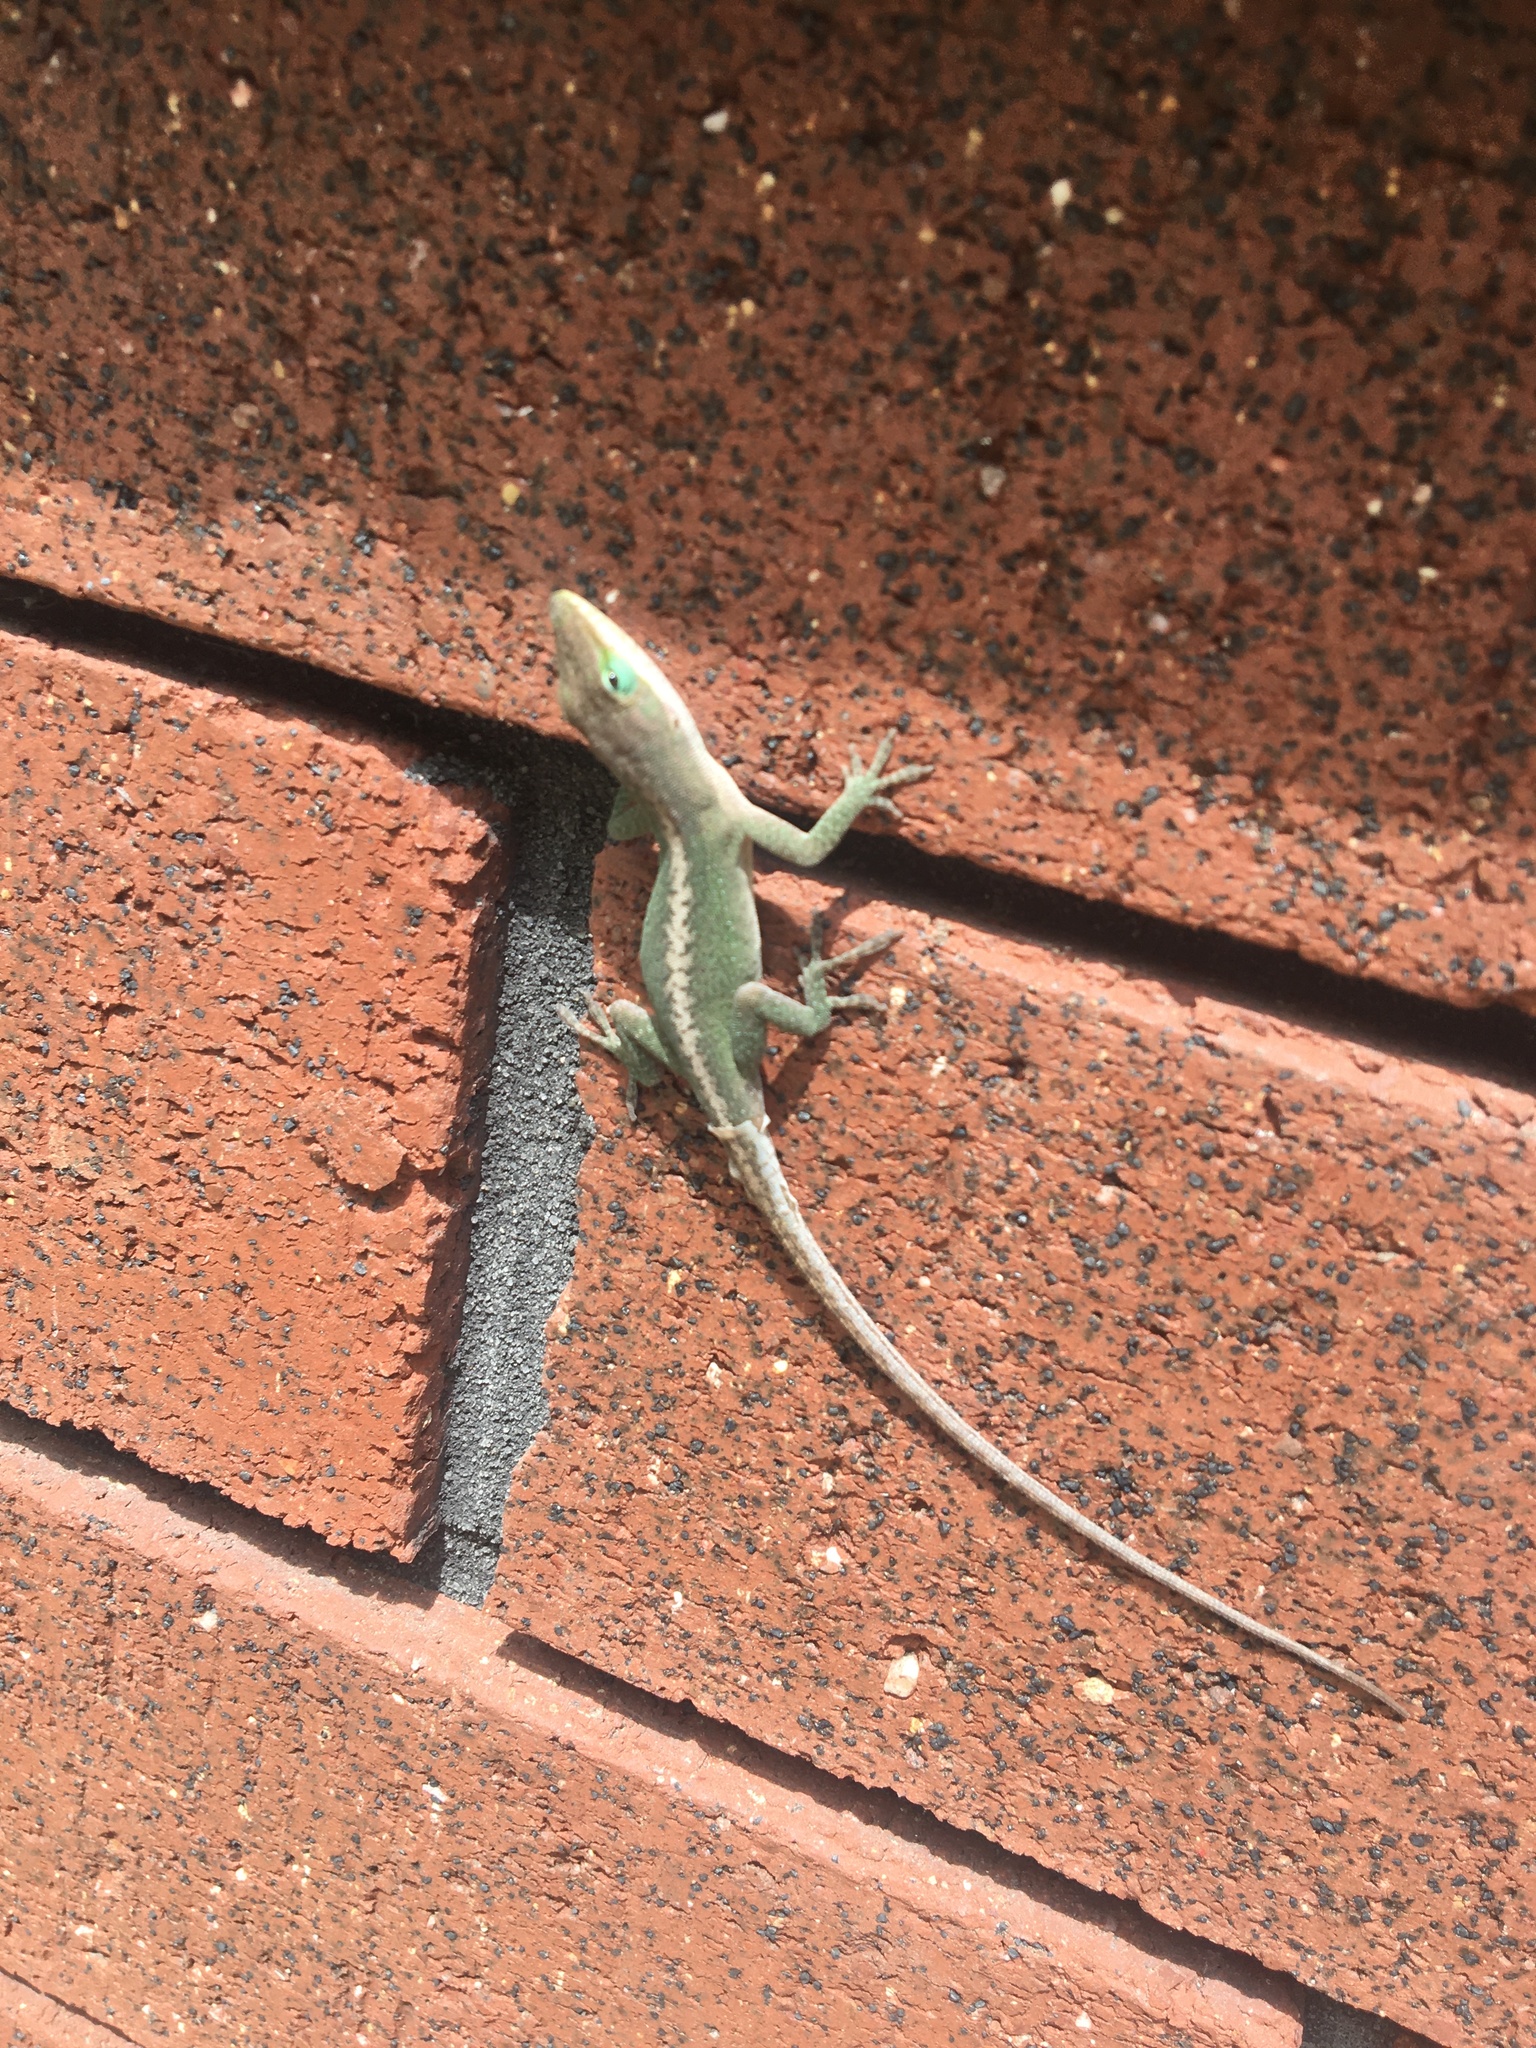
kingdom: Animalia
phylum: Chordata
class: Squamata
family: Dactyloidae
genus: Anolis
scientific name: Anolis carolinensis
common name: Green anole
